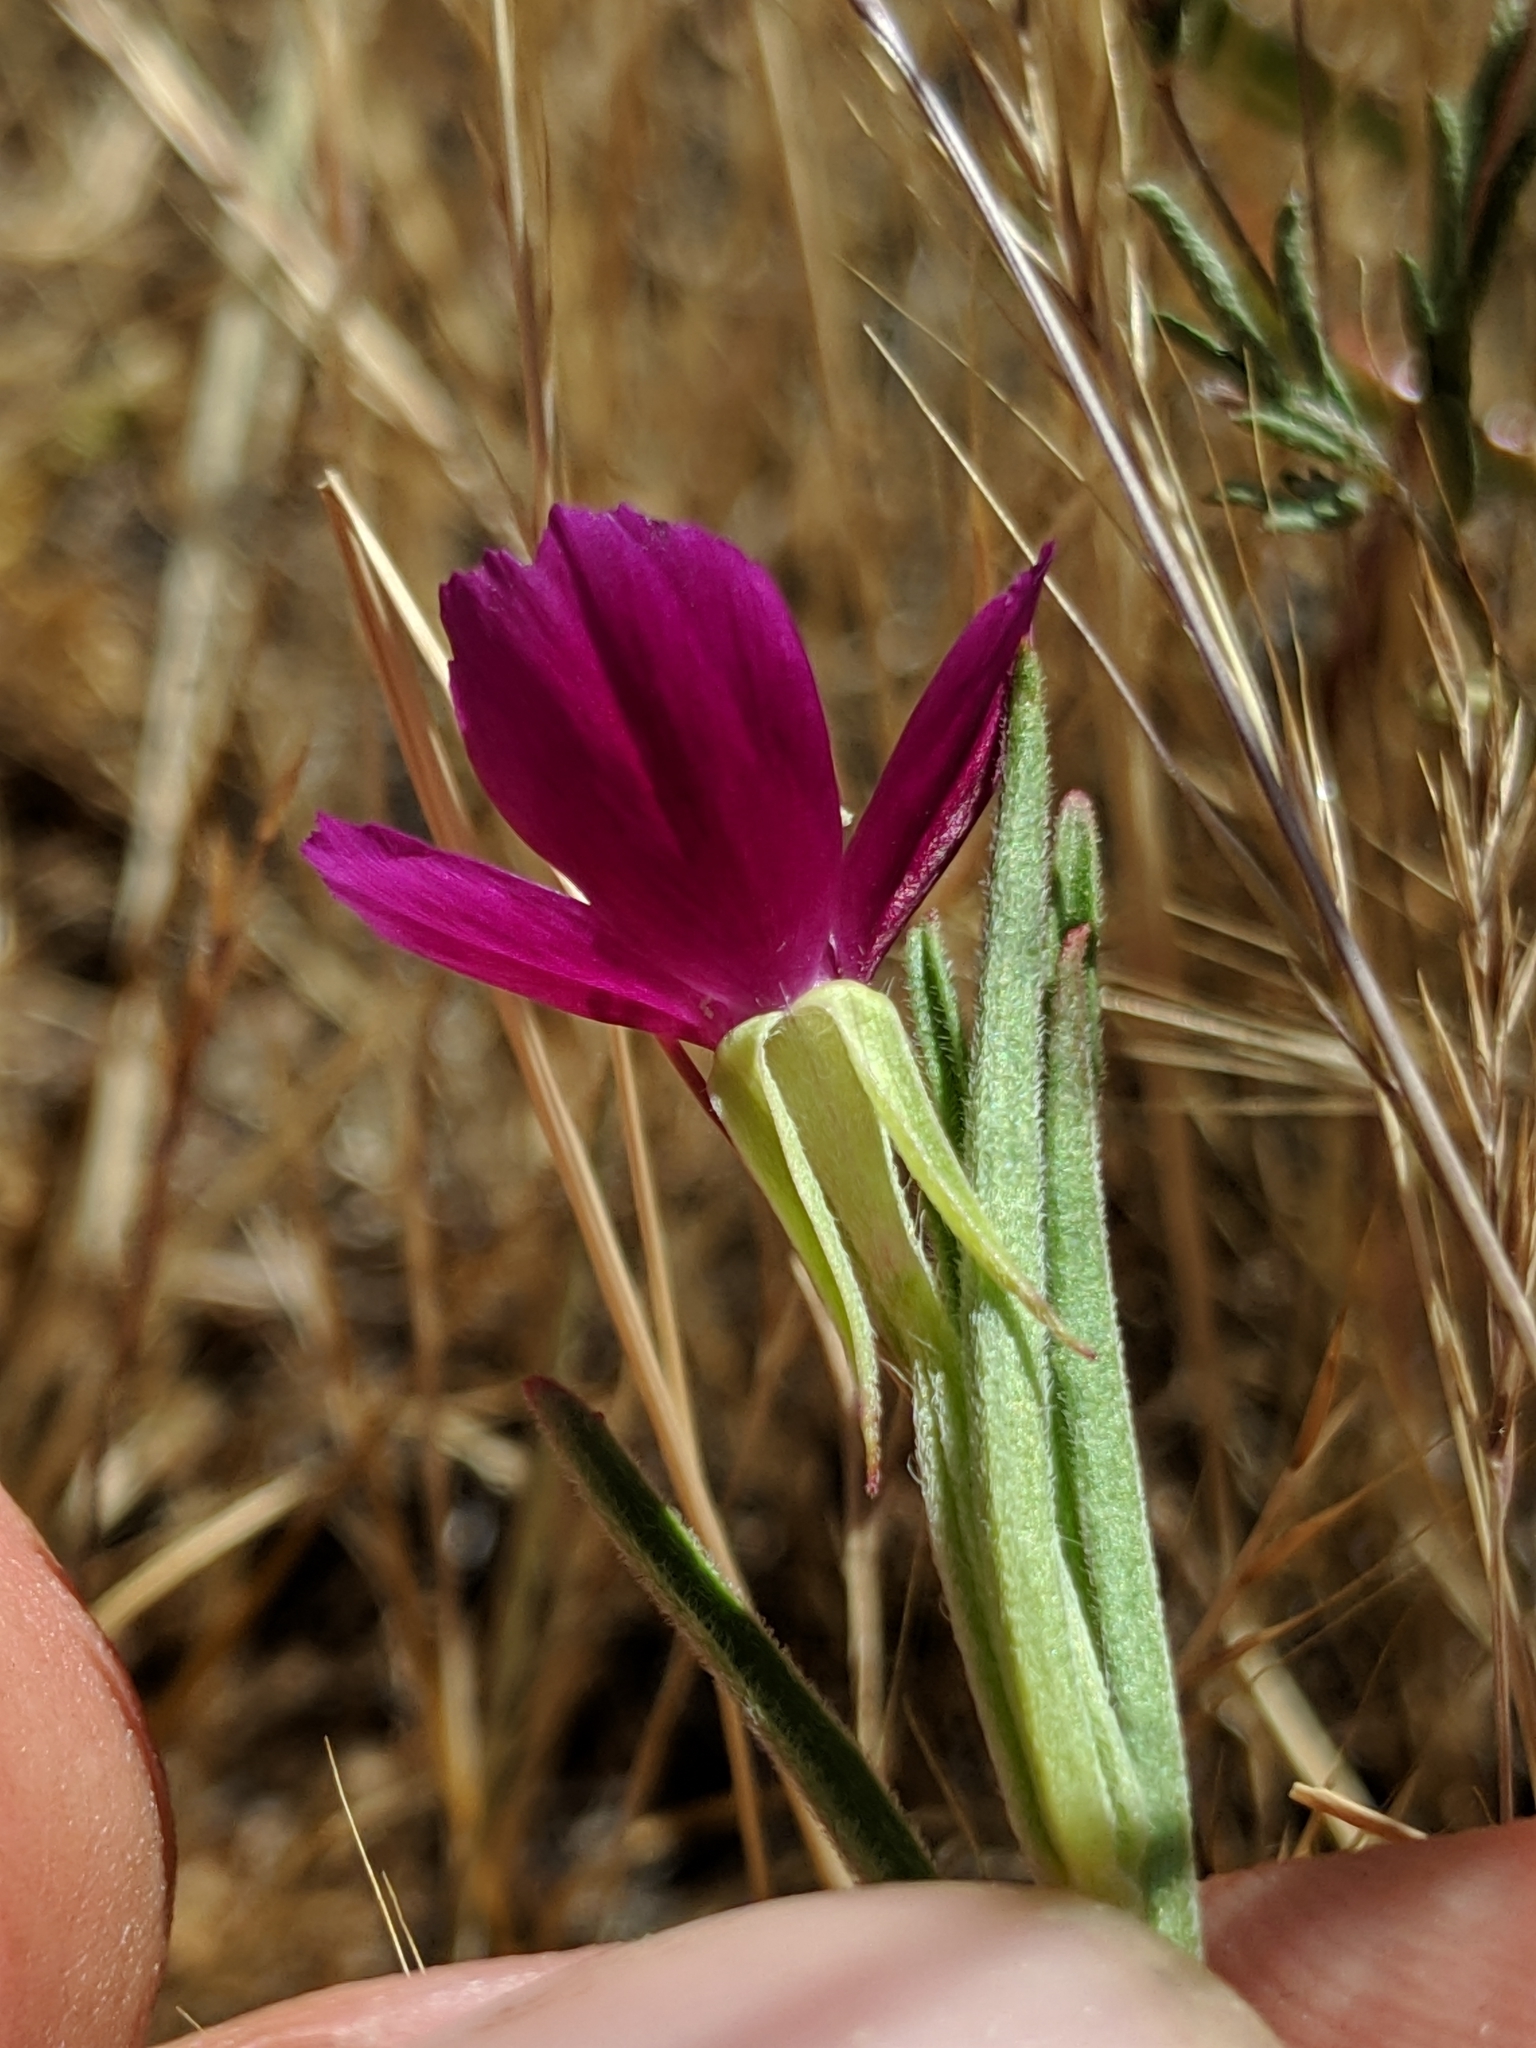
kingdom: Plantae
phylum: Tracheophyta
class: Magnoliopsida
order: Myrtales
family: Onagraceae
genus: Clarkia
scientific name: Clarkia purpurea
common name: Purple clarkia
